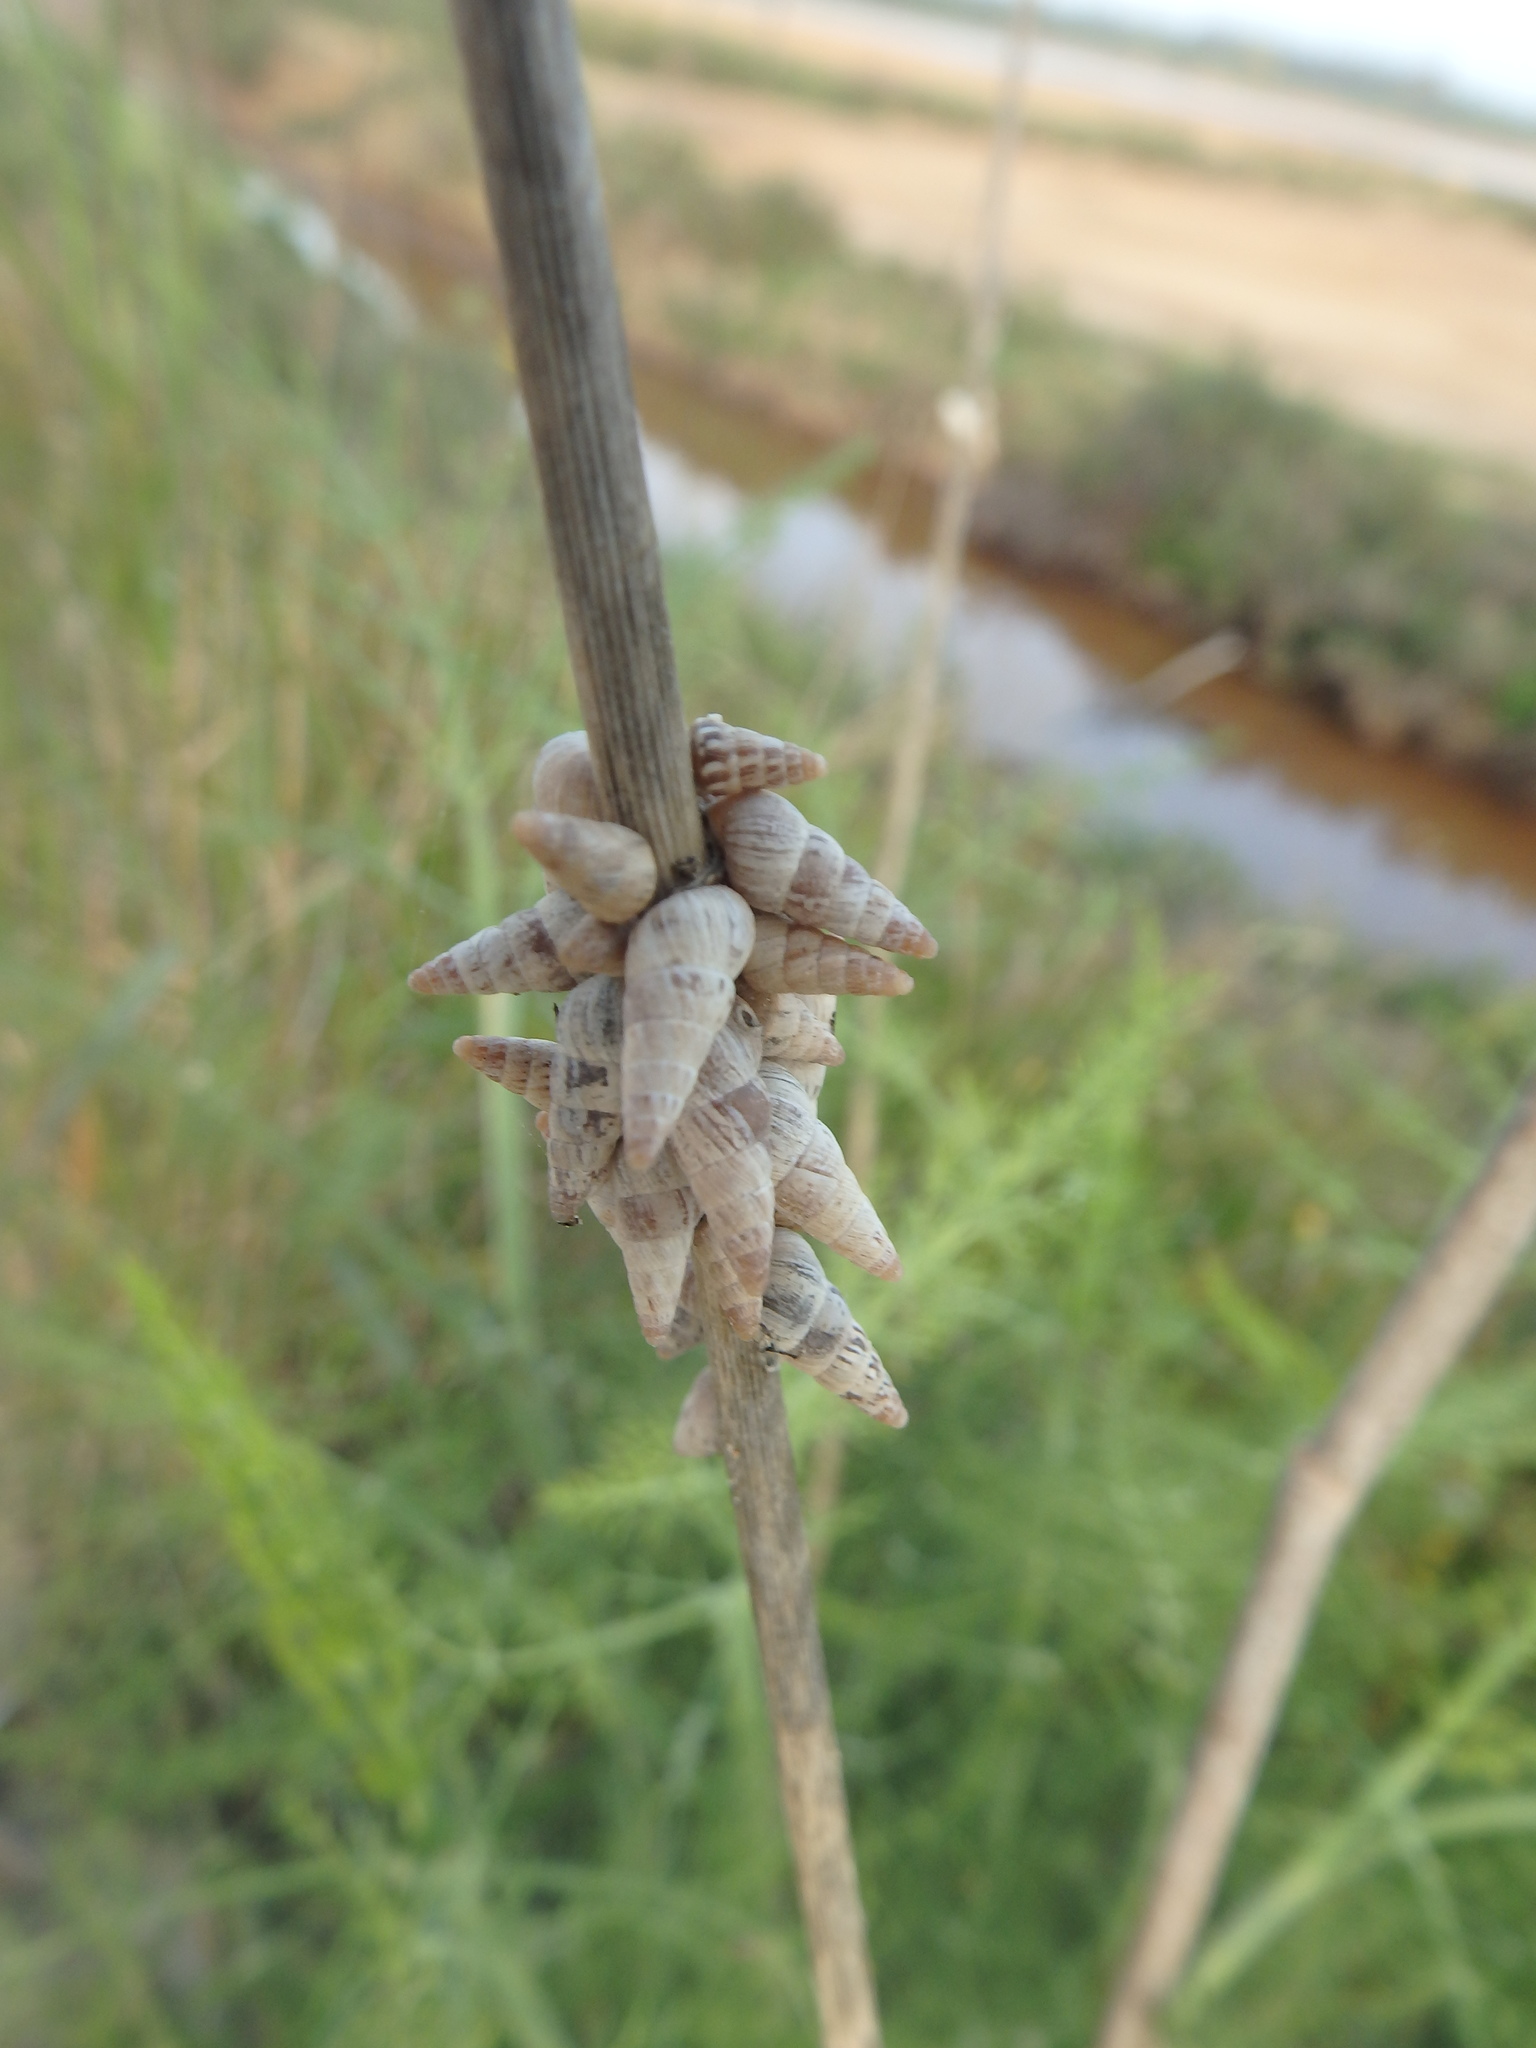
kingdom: Animalia
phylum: Mollusca
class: Gastropoda
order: Stylommatophora
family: Geomitridae
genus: Cochlicella
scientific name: Cochlicella acuta
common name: Pointed snail
